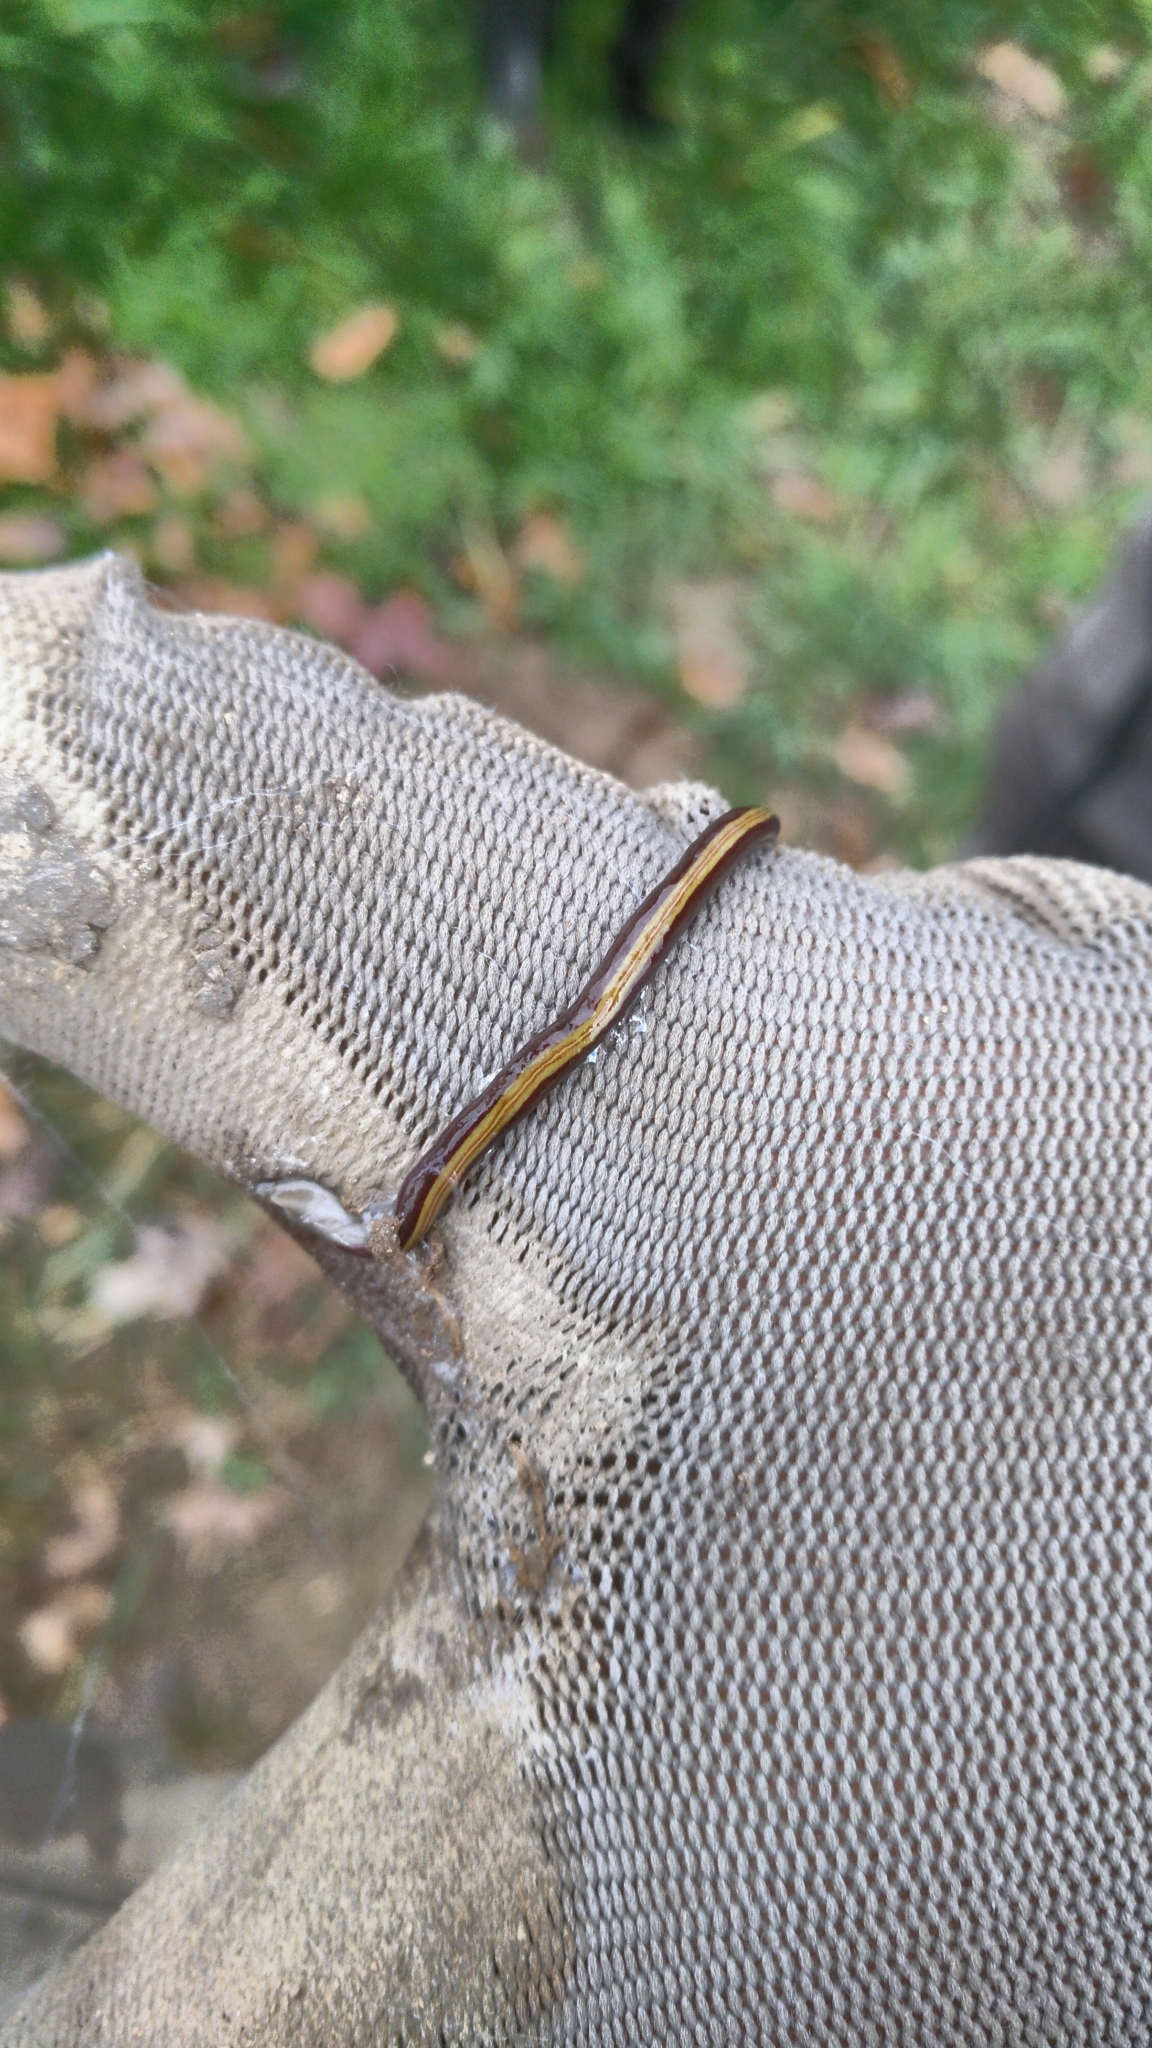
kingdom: Animalia
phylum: Platyhelminthes
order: Tricladida
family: Geoplanidae
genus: Caenoplana
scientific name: Caenoplana variegata
